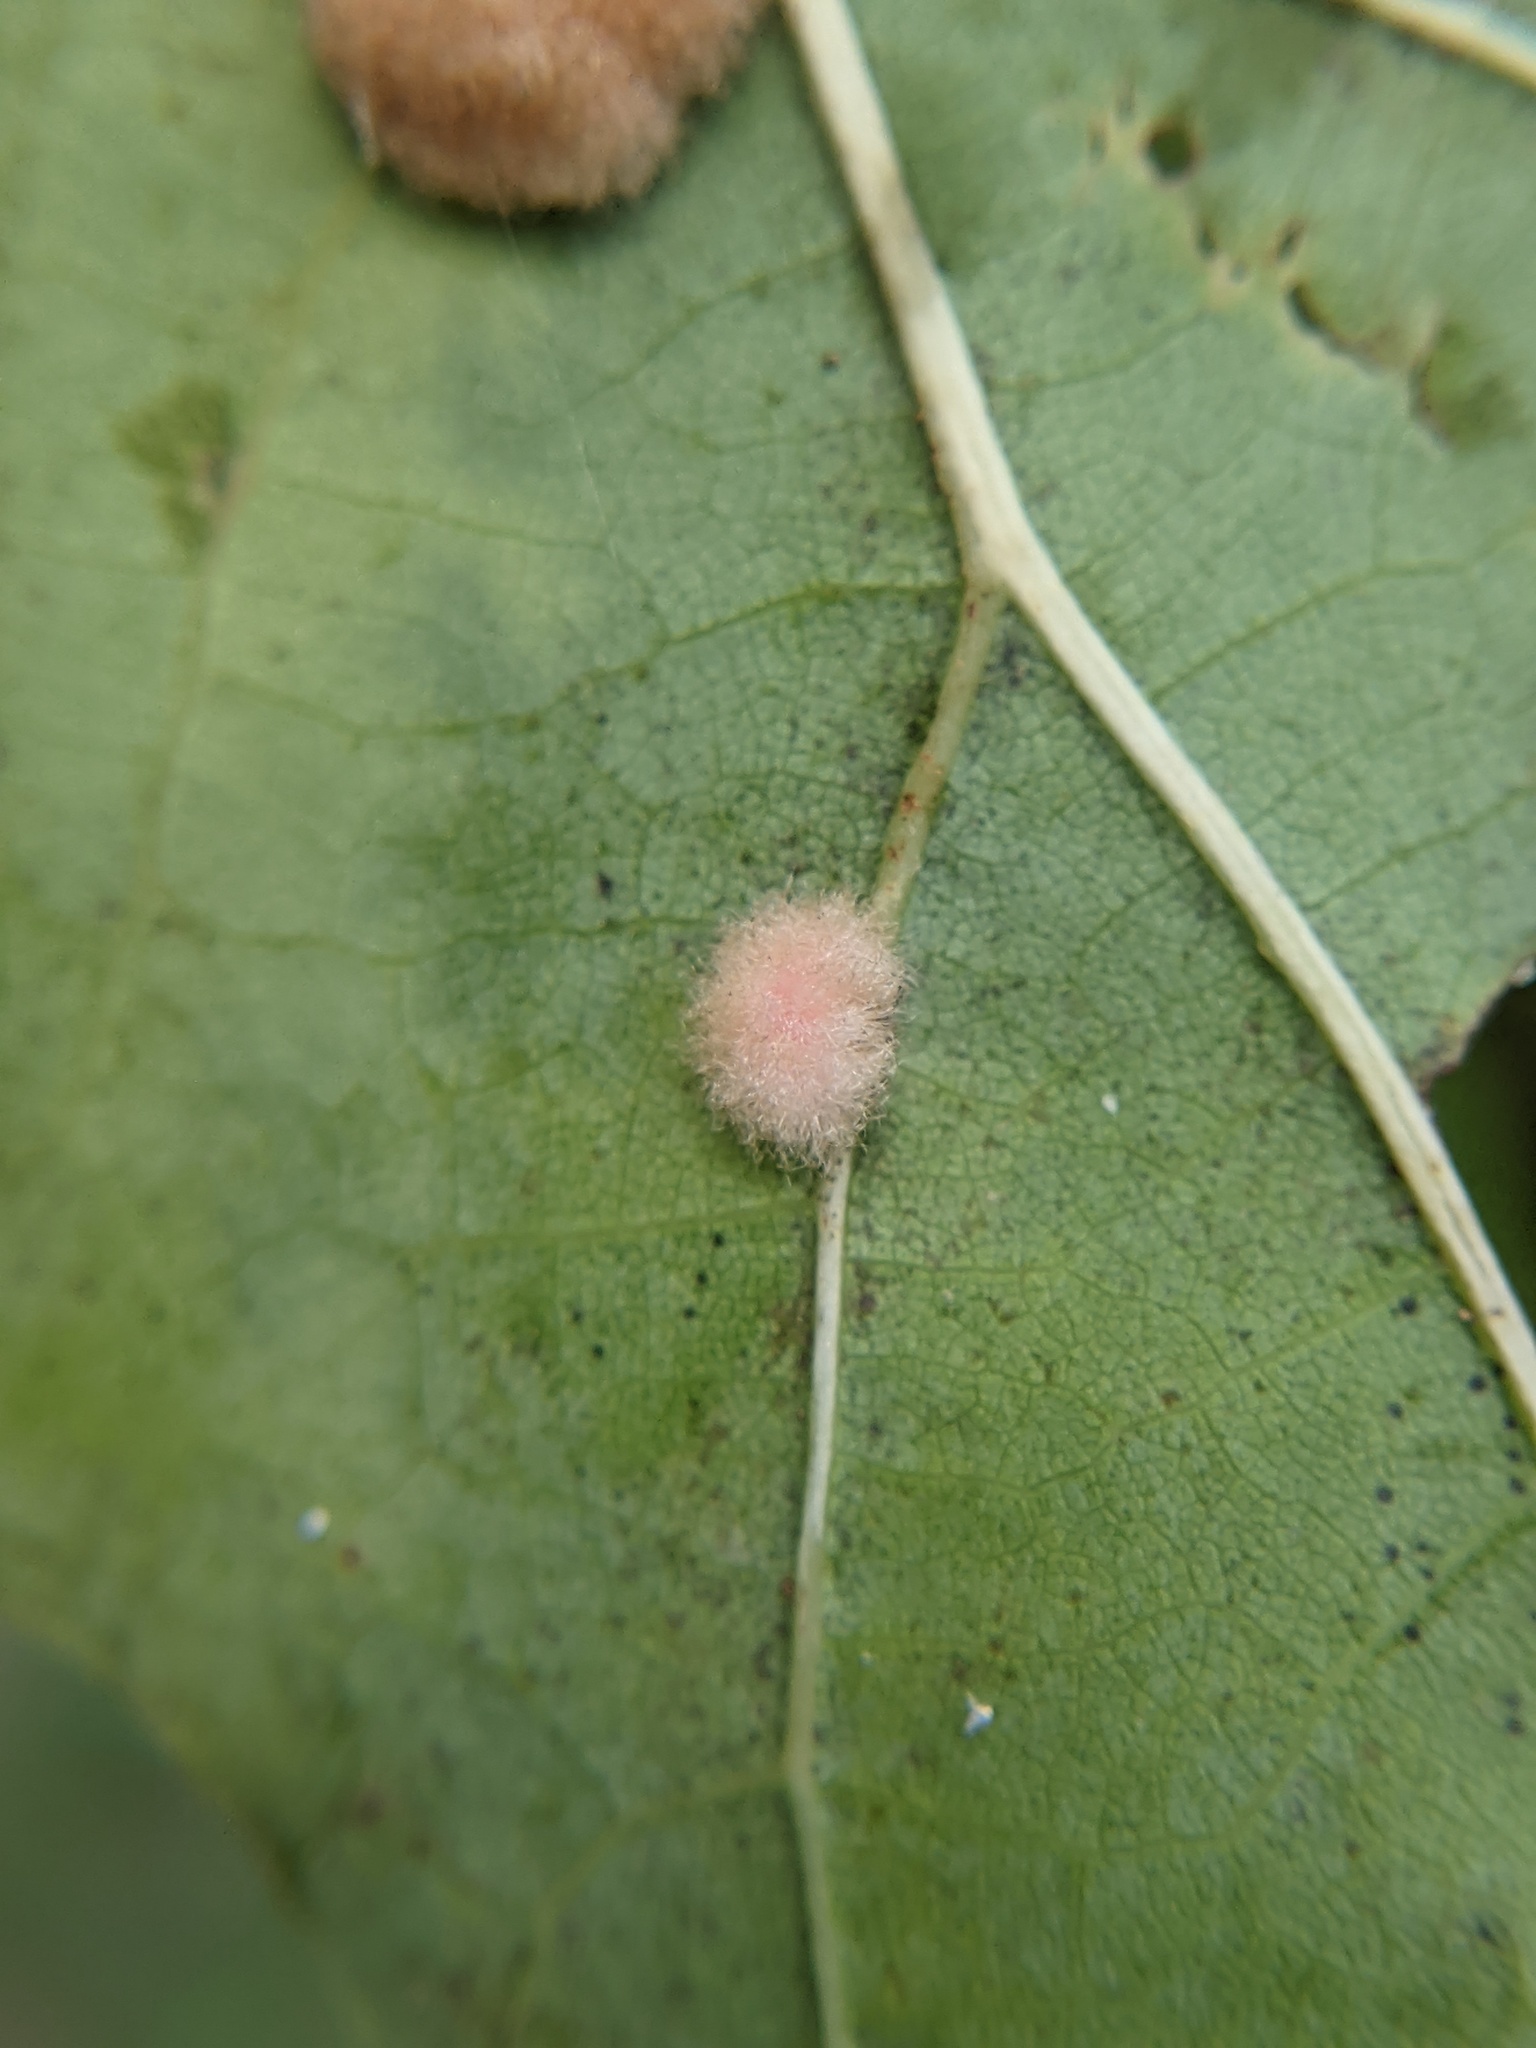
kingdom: Animalia
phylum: Arthropoda
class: Insecta
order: Hymenoptera
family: Cynipidae
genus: Callirhytis
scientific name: Callirhytis
